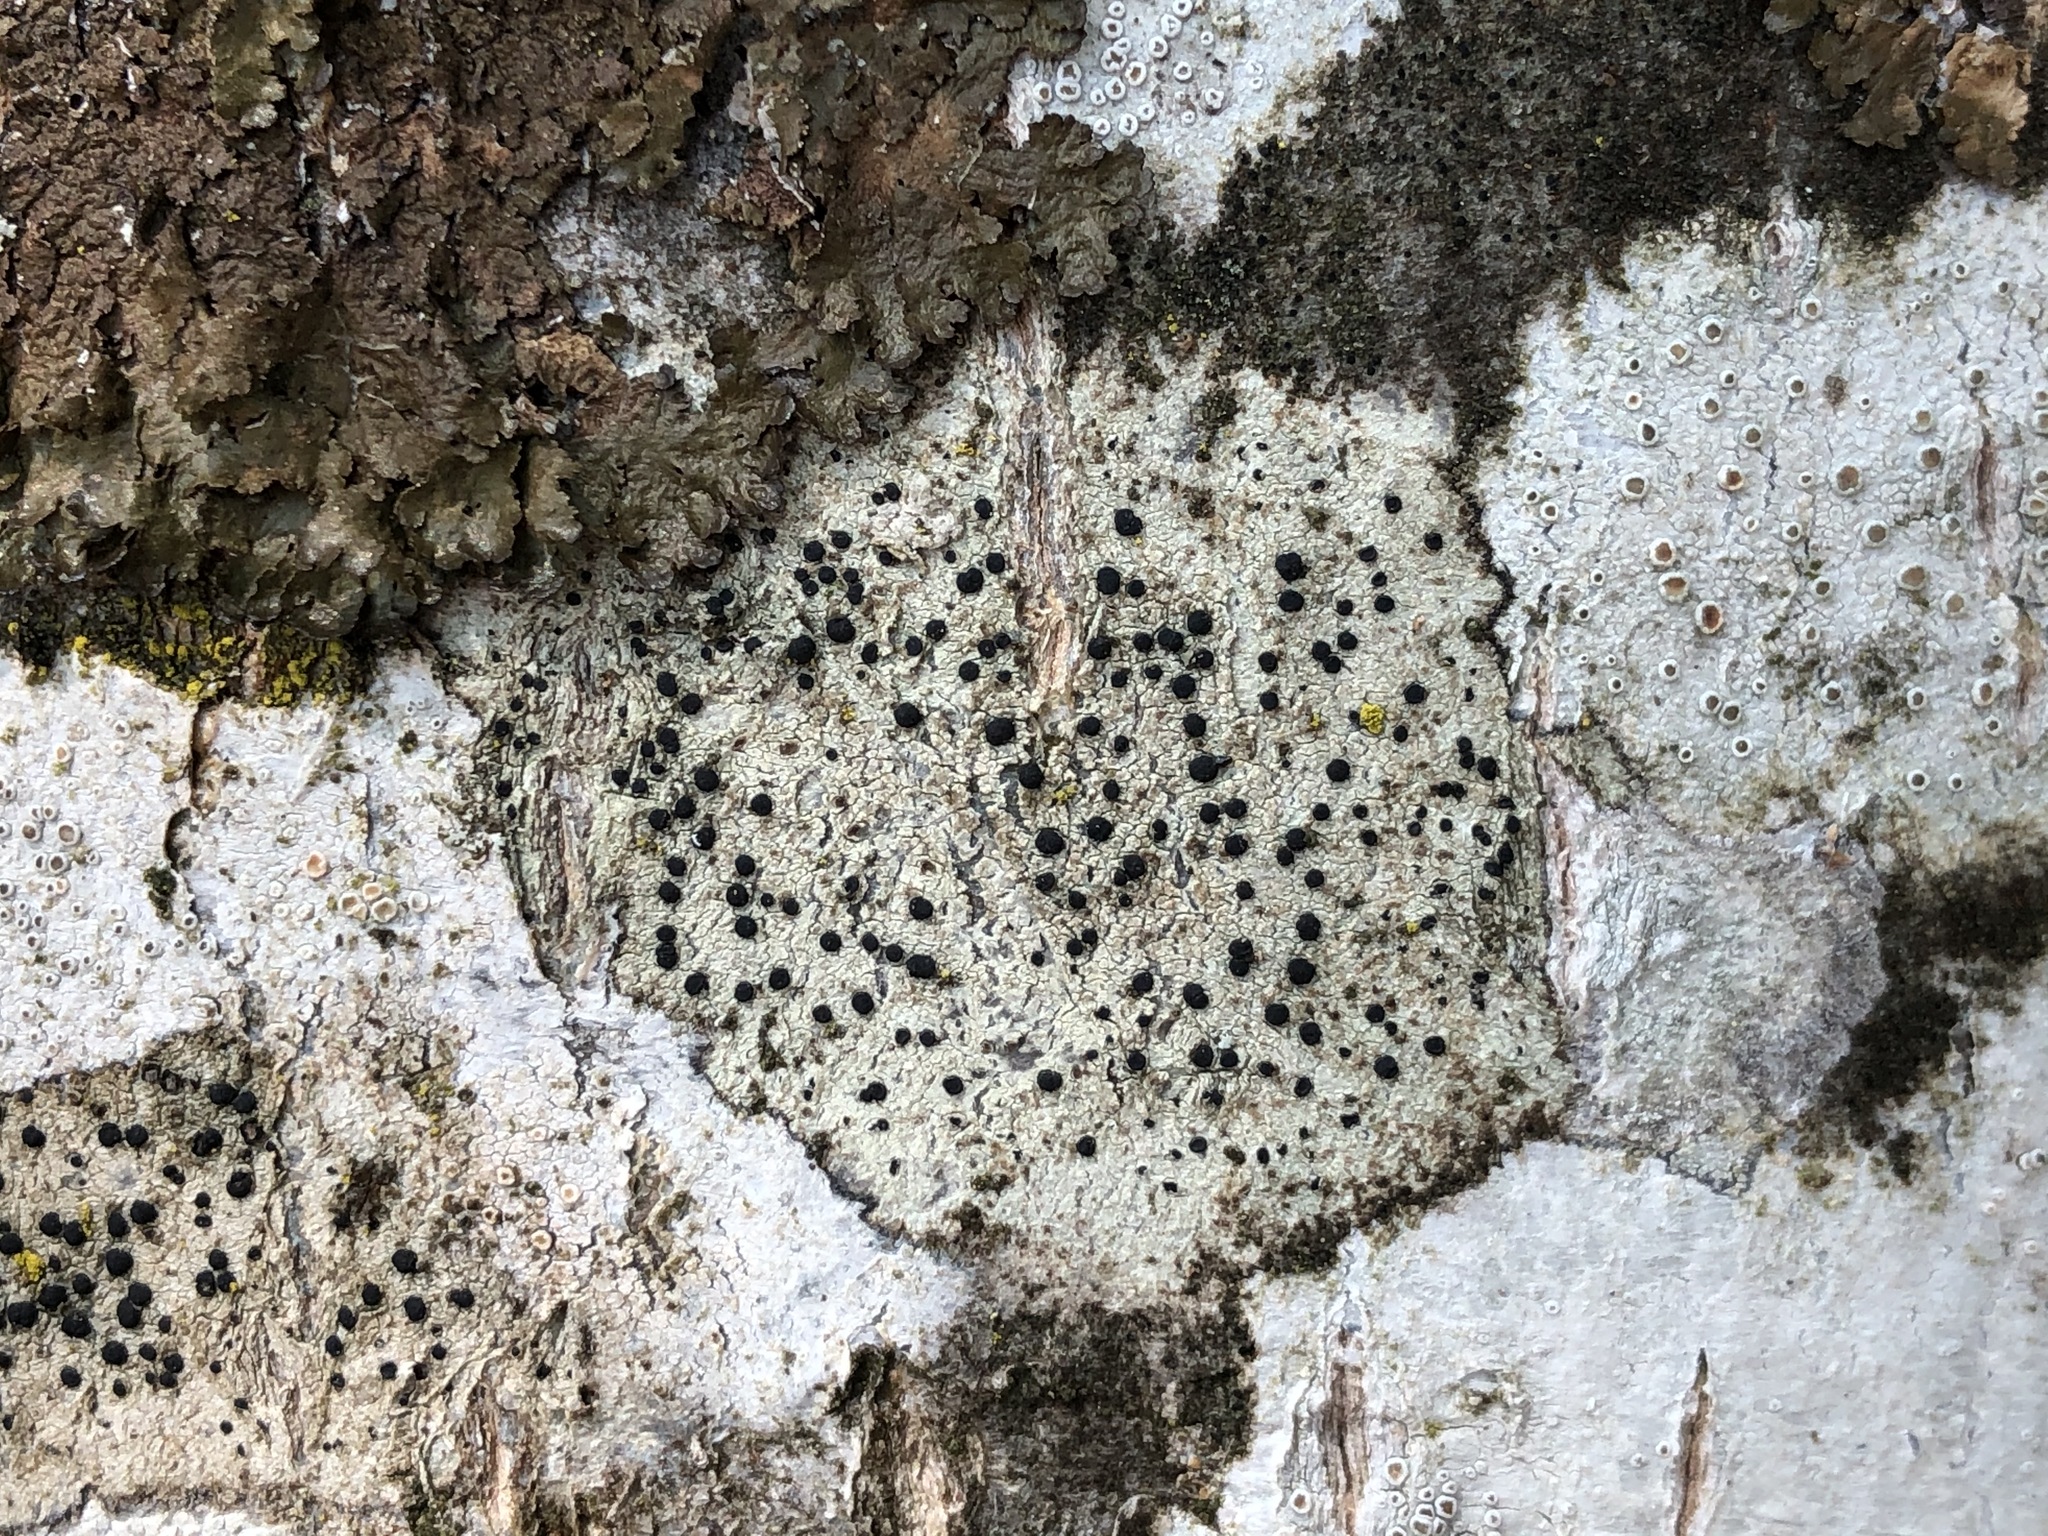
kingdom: Fungi
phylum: Ascomycota
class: Lecanoromycetes
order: Lecanorales
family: Lecanoraceae
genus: Lecidella
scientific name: Lecidella elaeochroma
